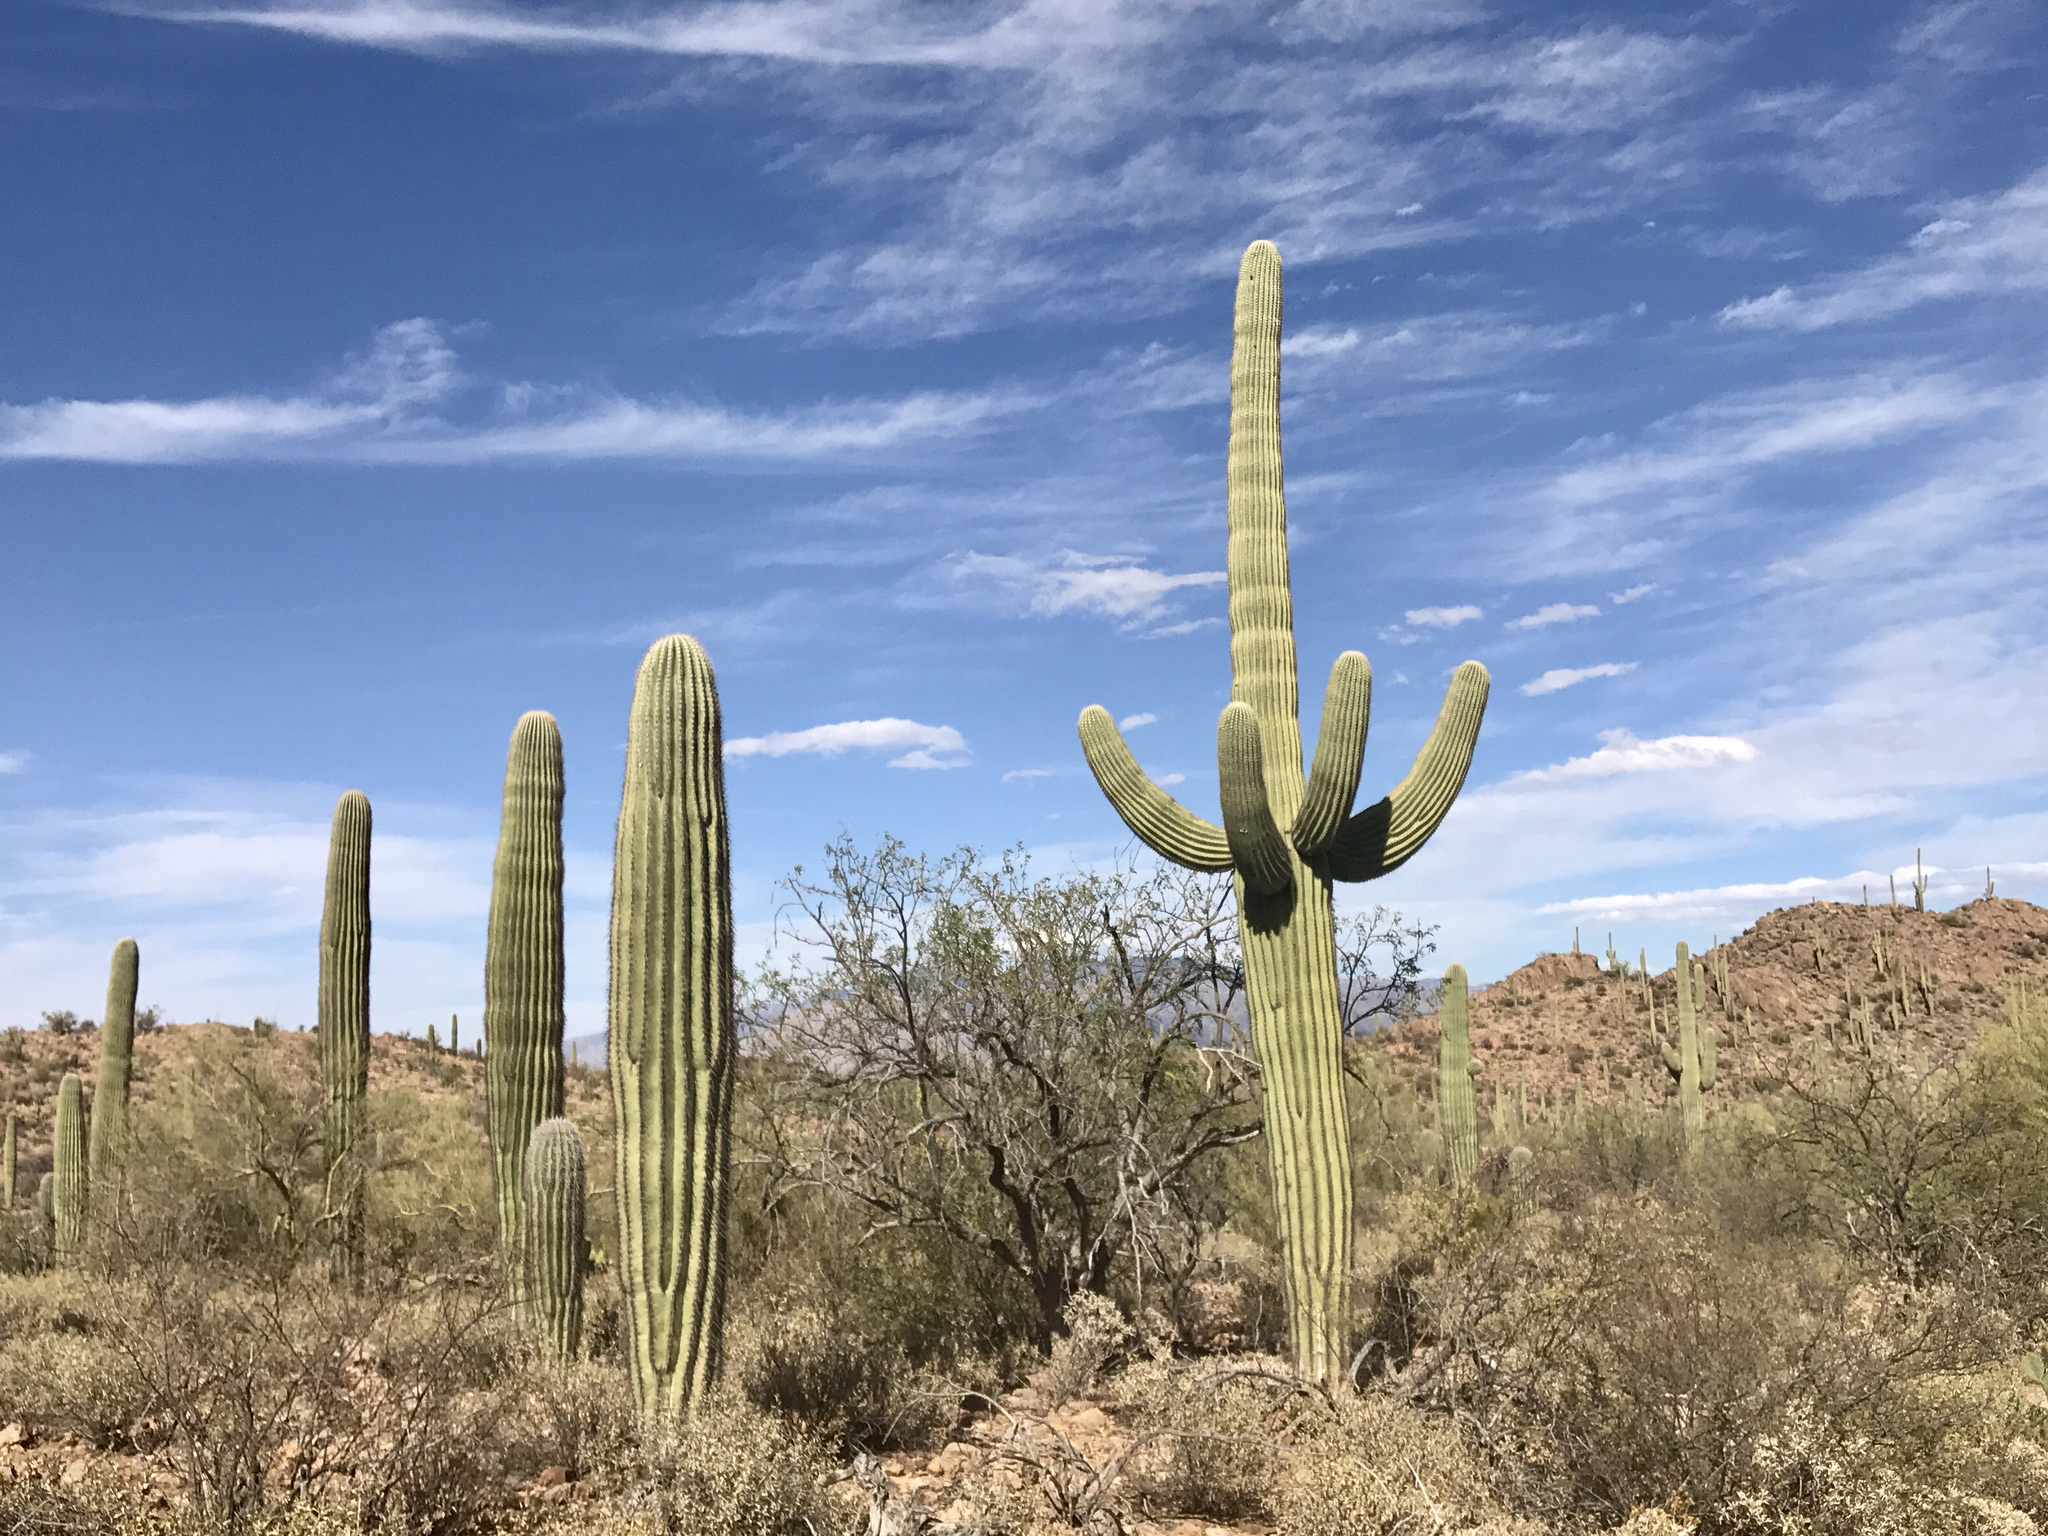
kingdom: Plantae
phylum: Tracheophyta
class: Magnoliopsida
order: Caryophyllales
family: Cactaceae
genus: Carnegiea
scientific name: Carnegiea gigantea
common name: Saguaro
